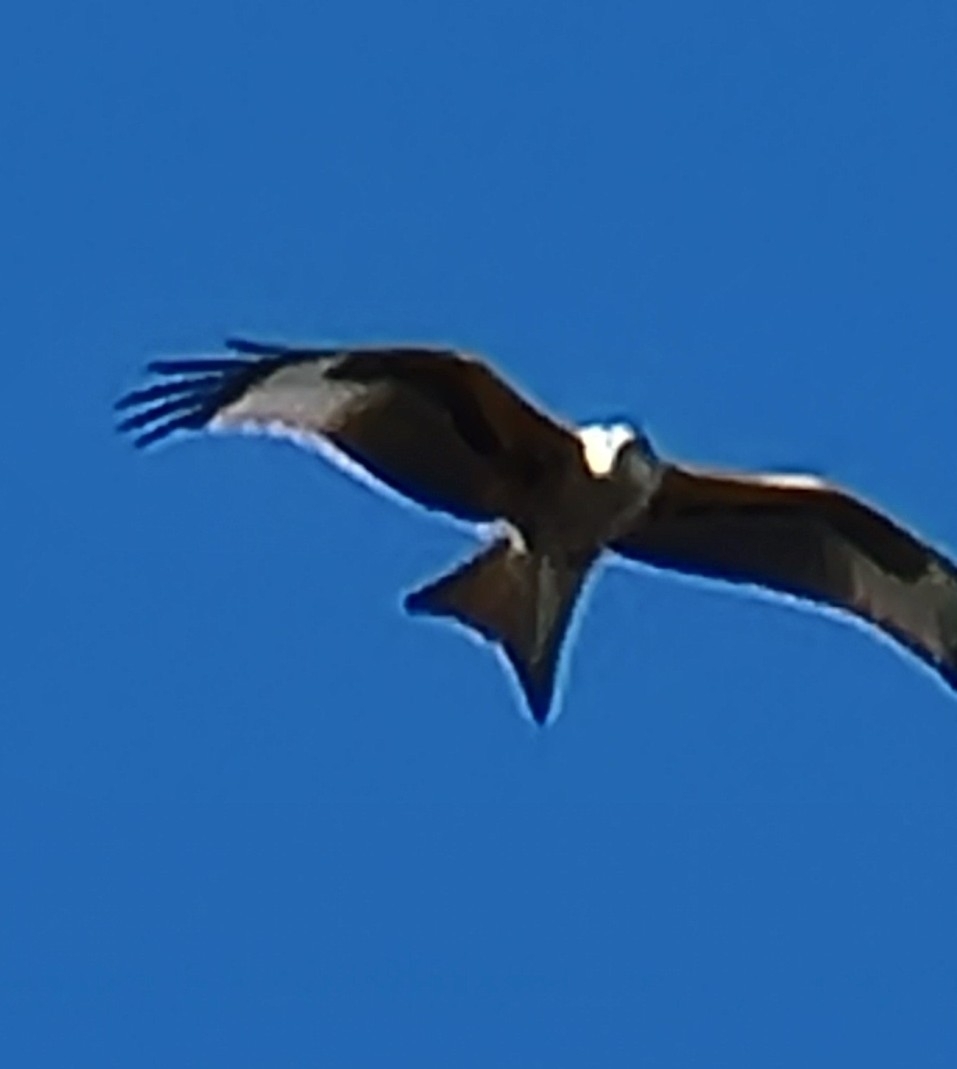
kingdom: Animalia
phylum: Chordata
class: Aves
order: Accipitriformes
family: Accipitridae
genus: Milvus
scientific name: Milvus milvus
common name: Red kite
